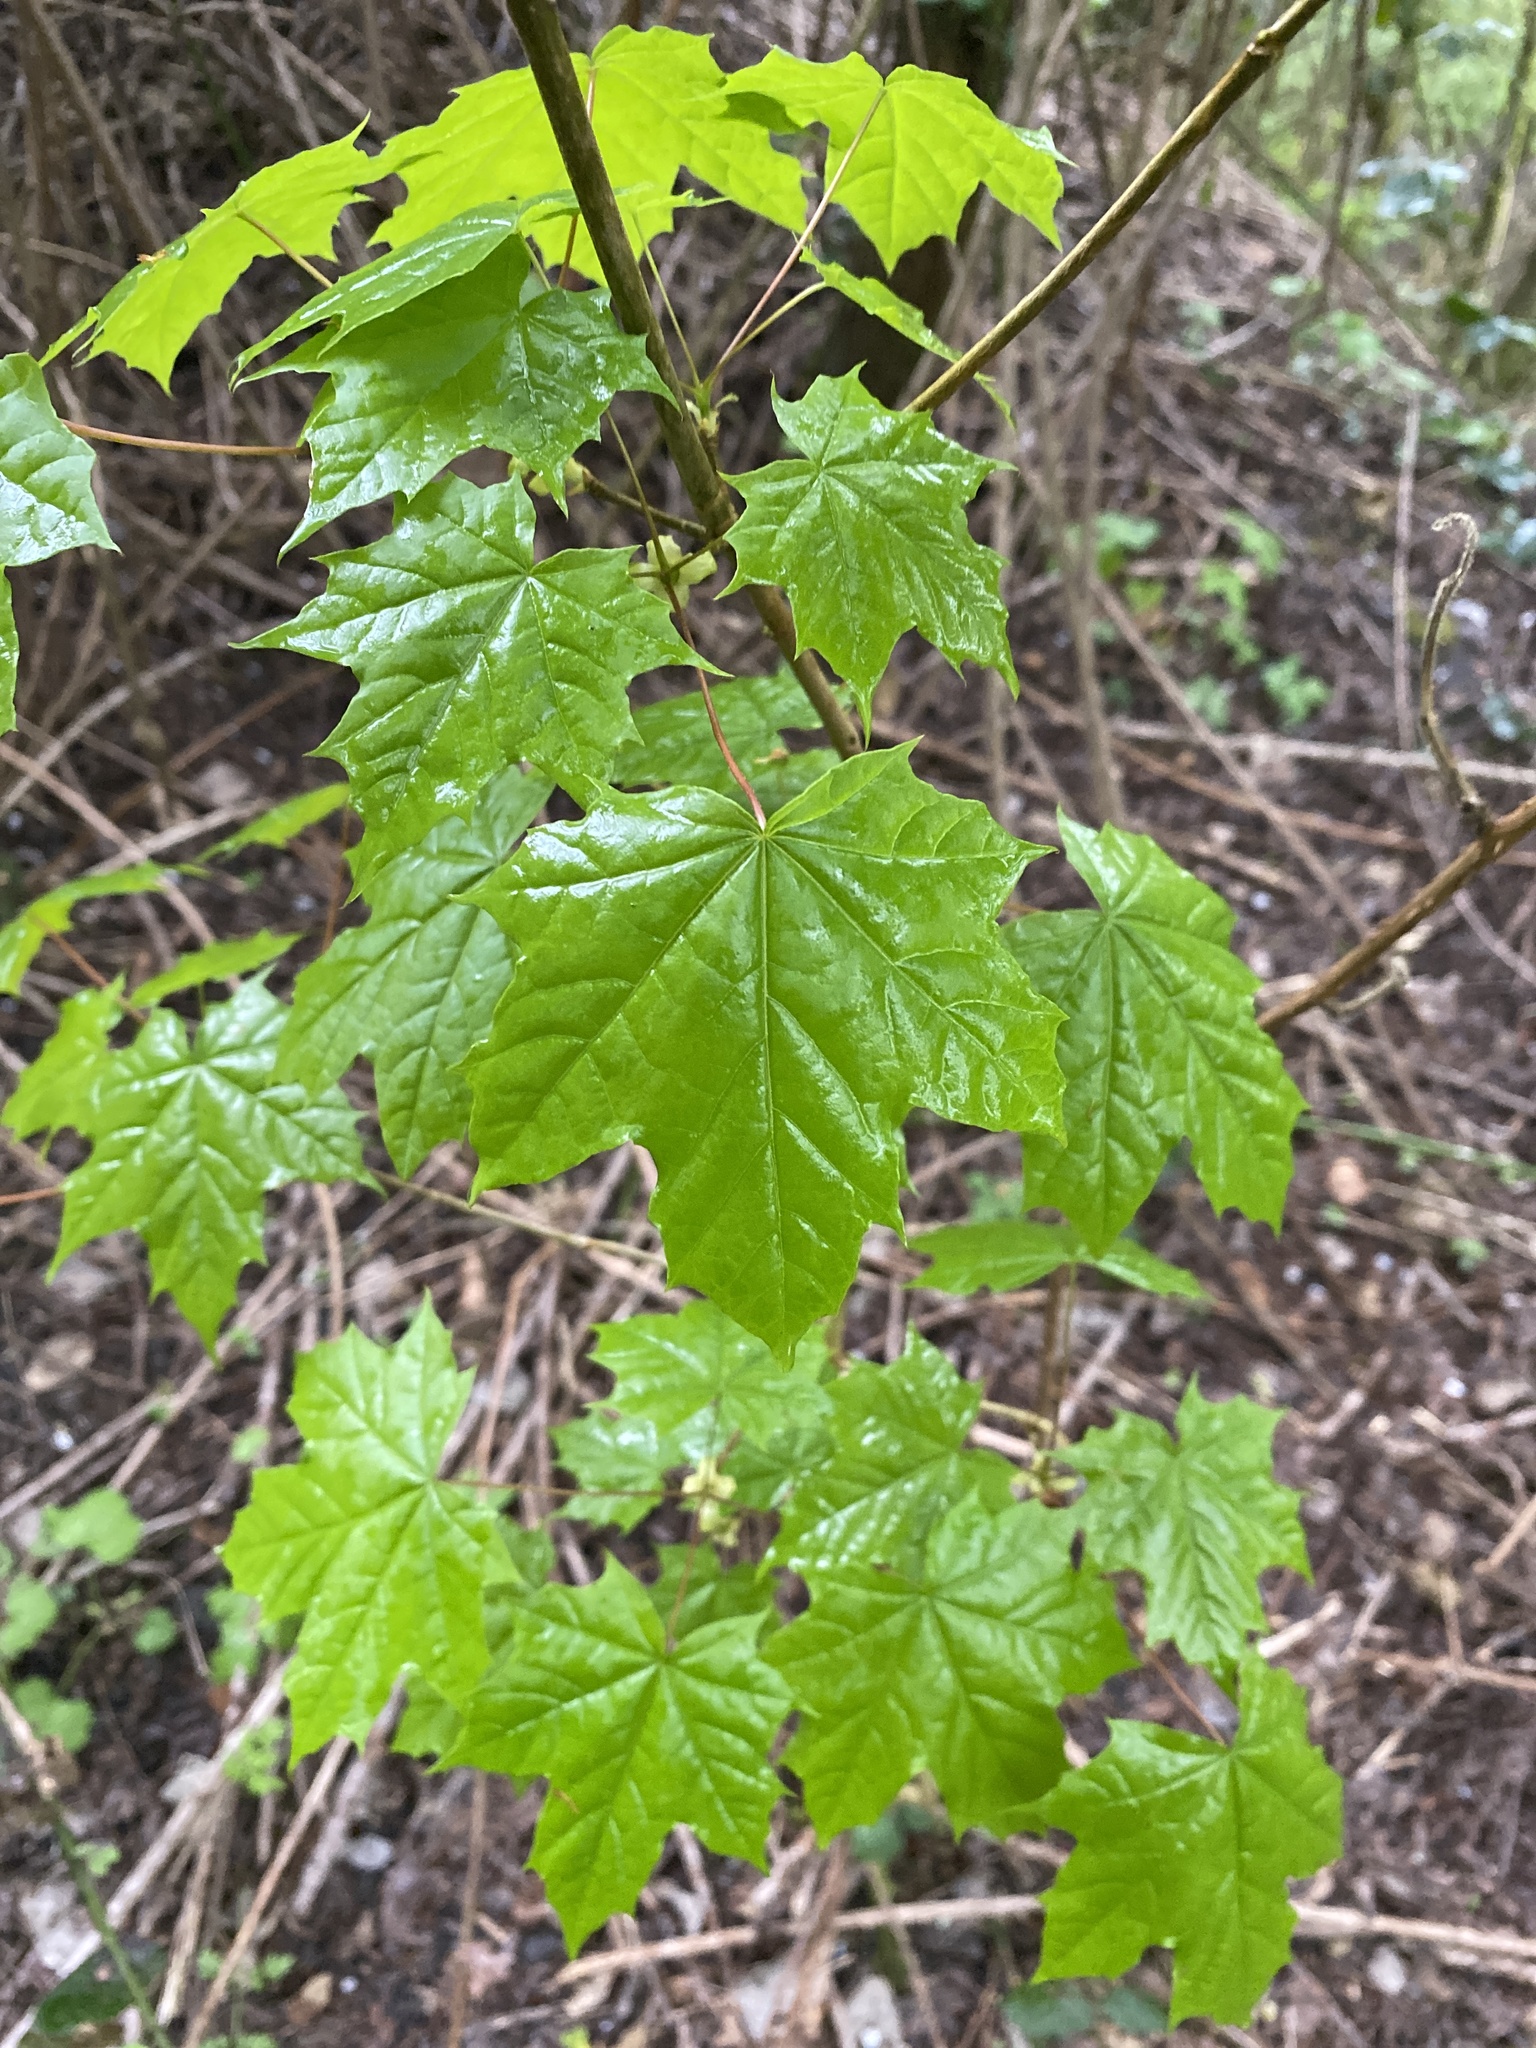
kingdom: Plantae
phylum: Tracheophyta
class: Magnoliopsida
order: Sapindales
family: Sapindaceae
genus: Acer
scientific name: Acer platanoides
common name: Norway maple
